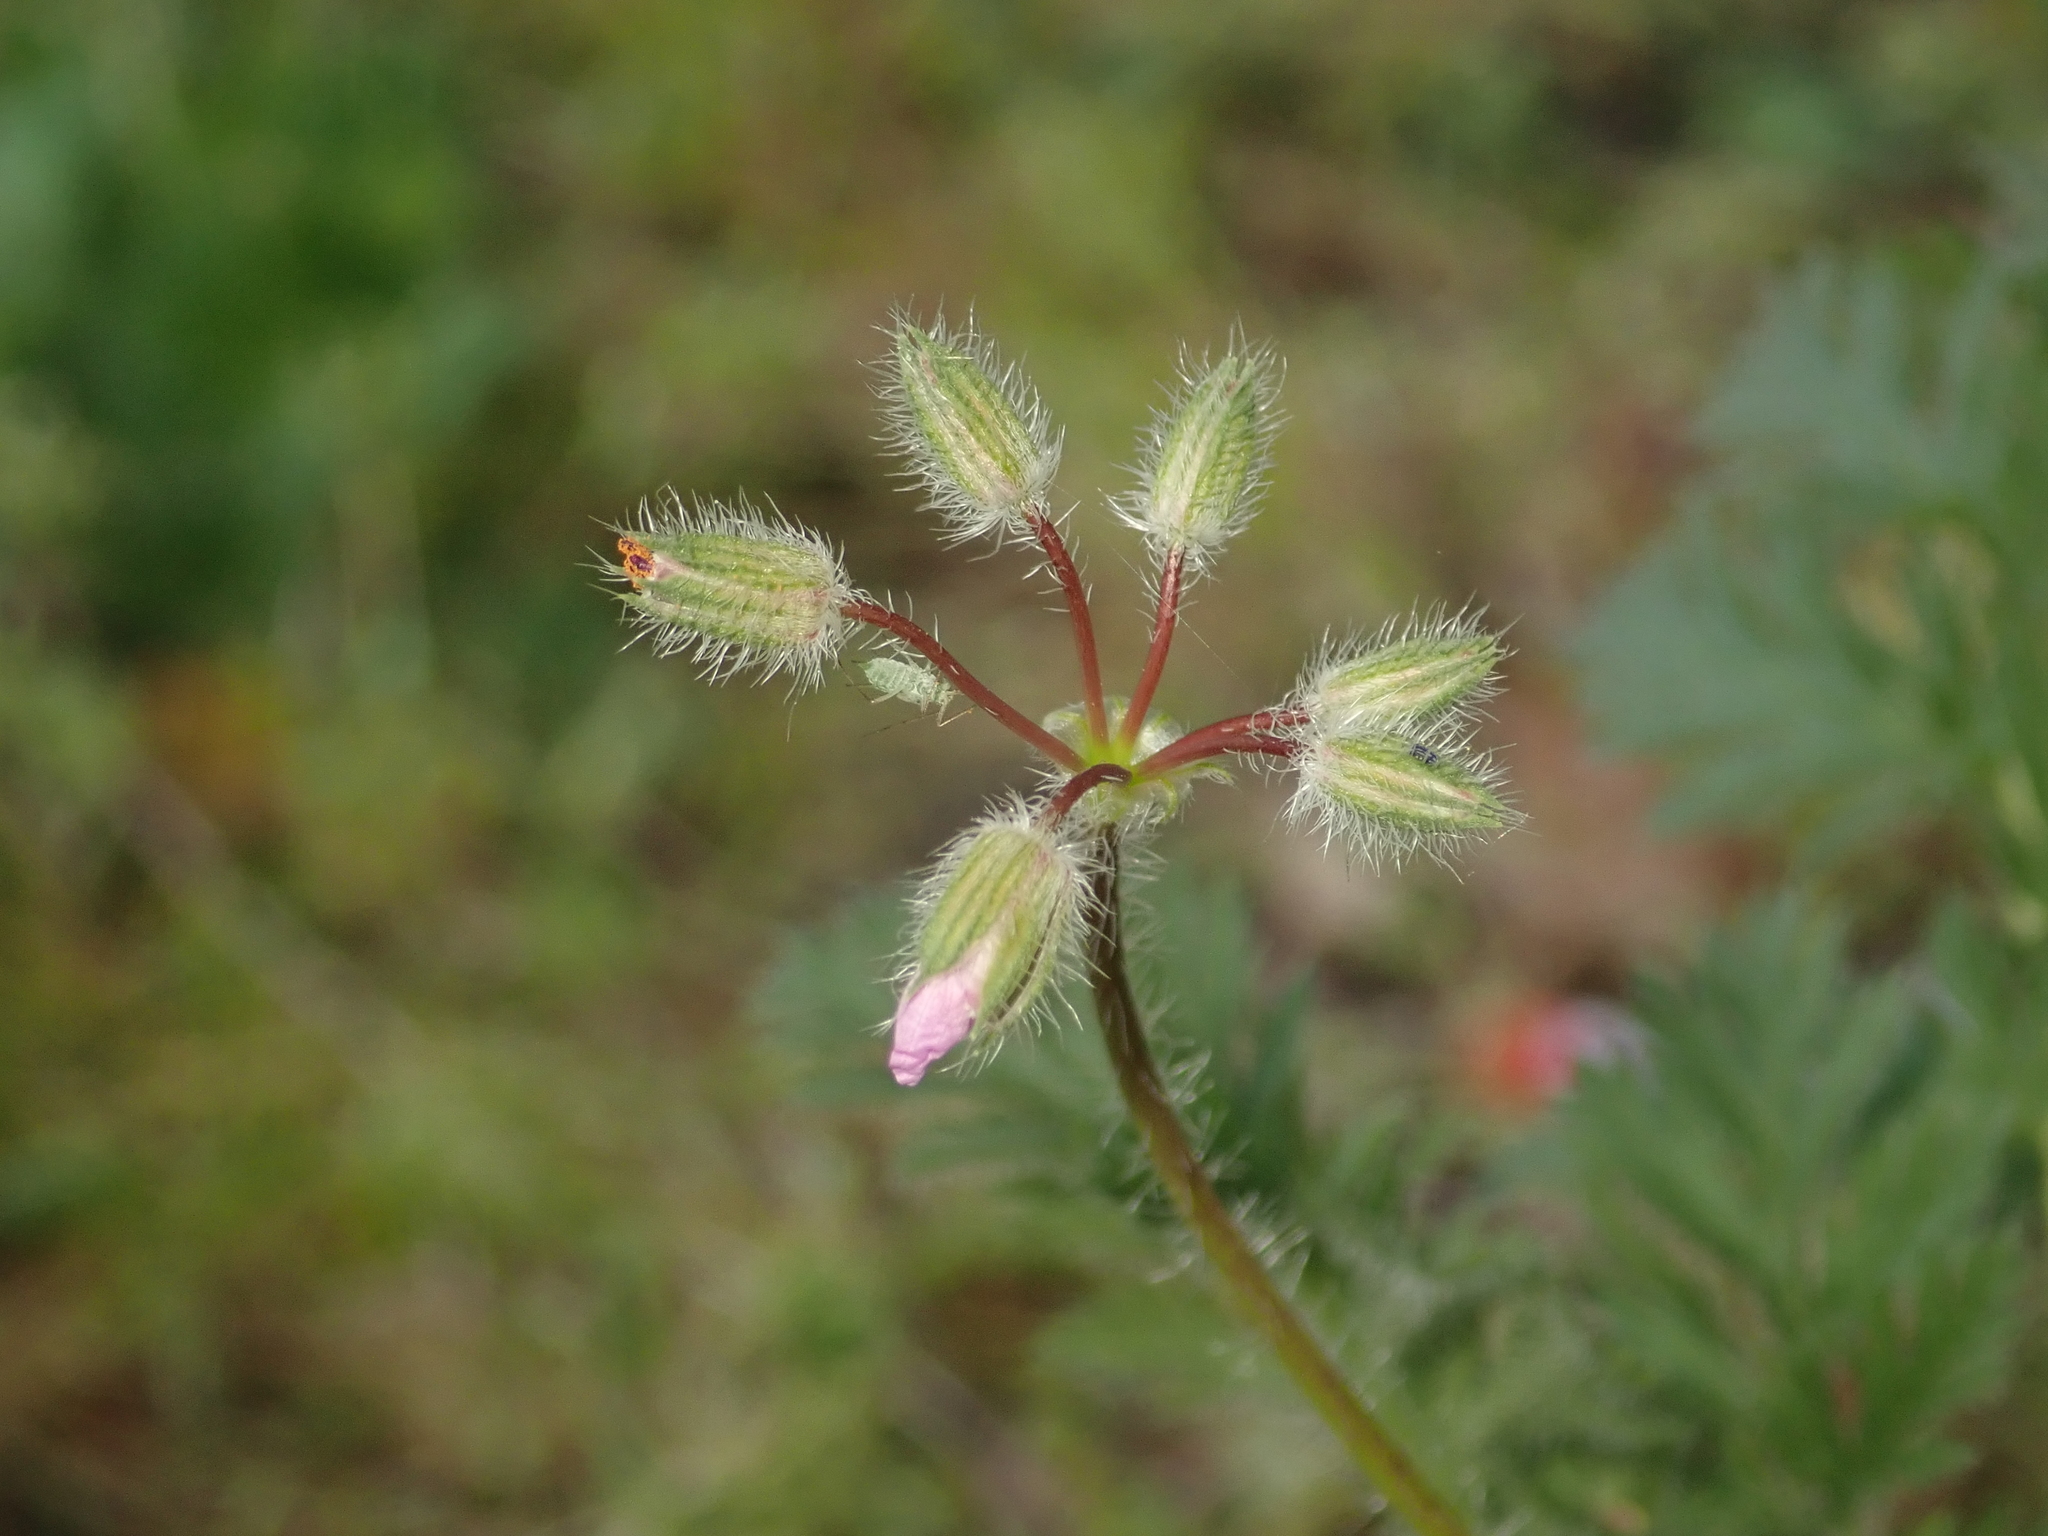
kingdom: Plantae
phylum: Tracheophyta
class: Magnoliopsida
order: Geraniales
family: Geraniaceae
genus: Erodium
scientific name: Erodium cicutarium
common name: Common stork's-bill
